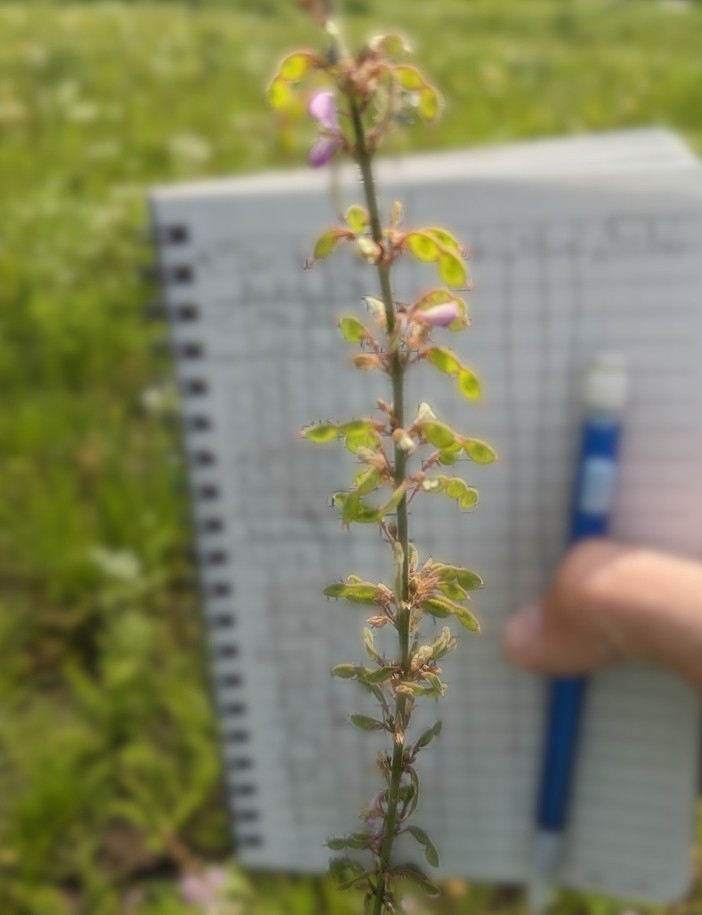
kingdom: Plantae
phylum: Tracheophyta
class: Magnoliopsida
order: Fabales
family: Fabaceae
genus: Desmodium
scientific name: Desmodium sessilifolium
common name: Sessile tick-clover
